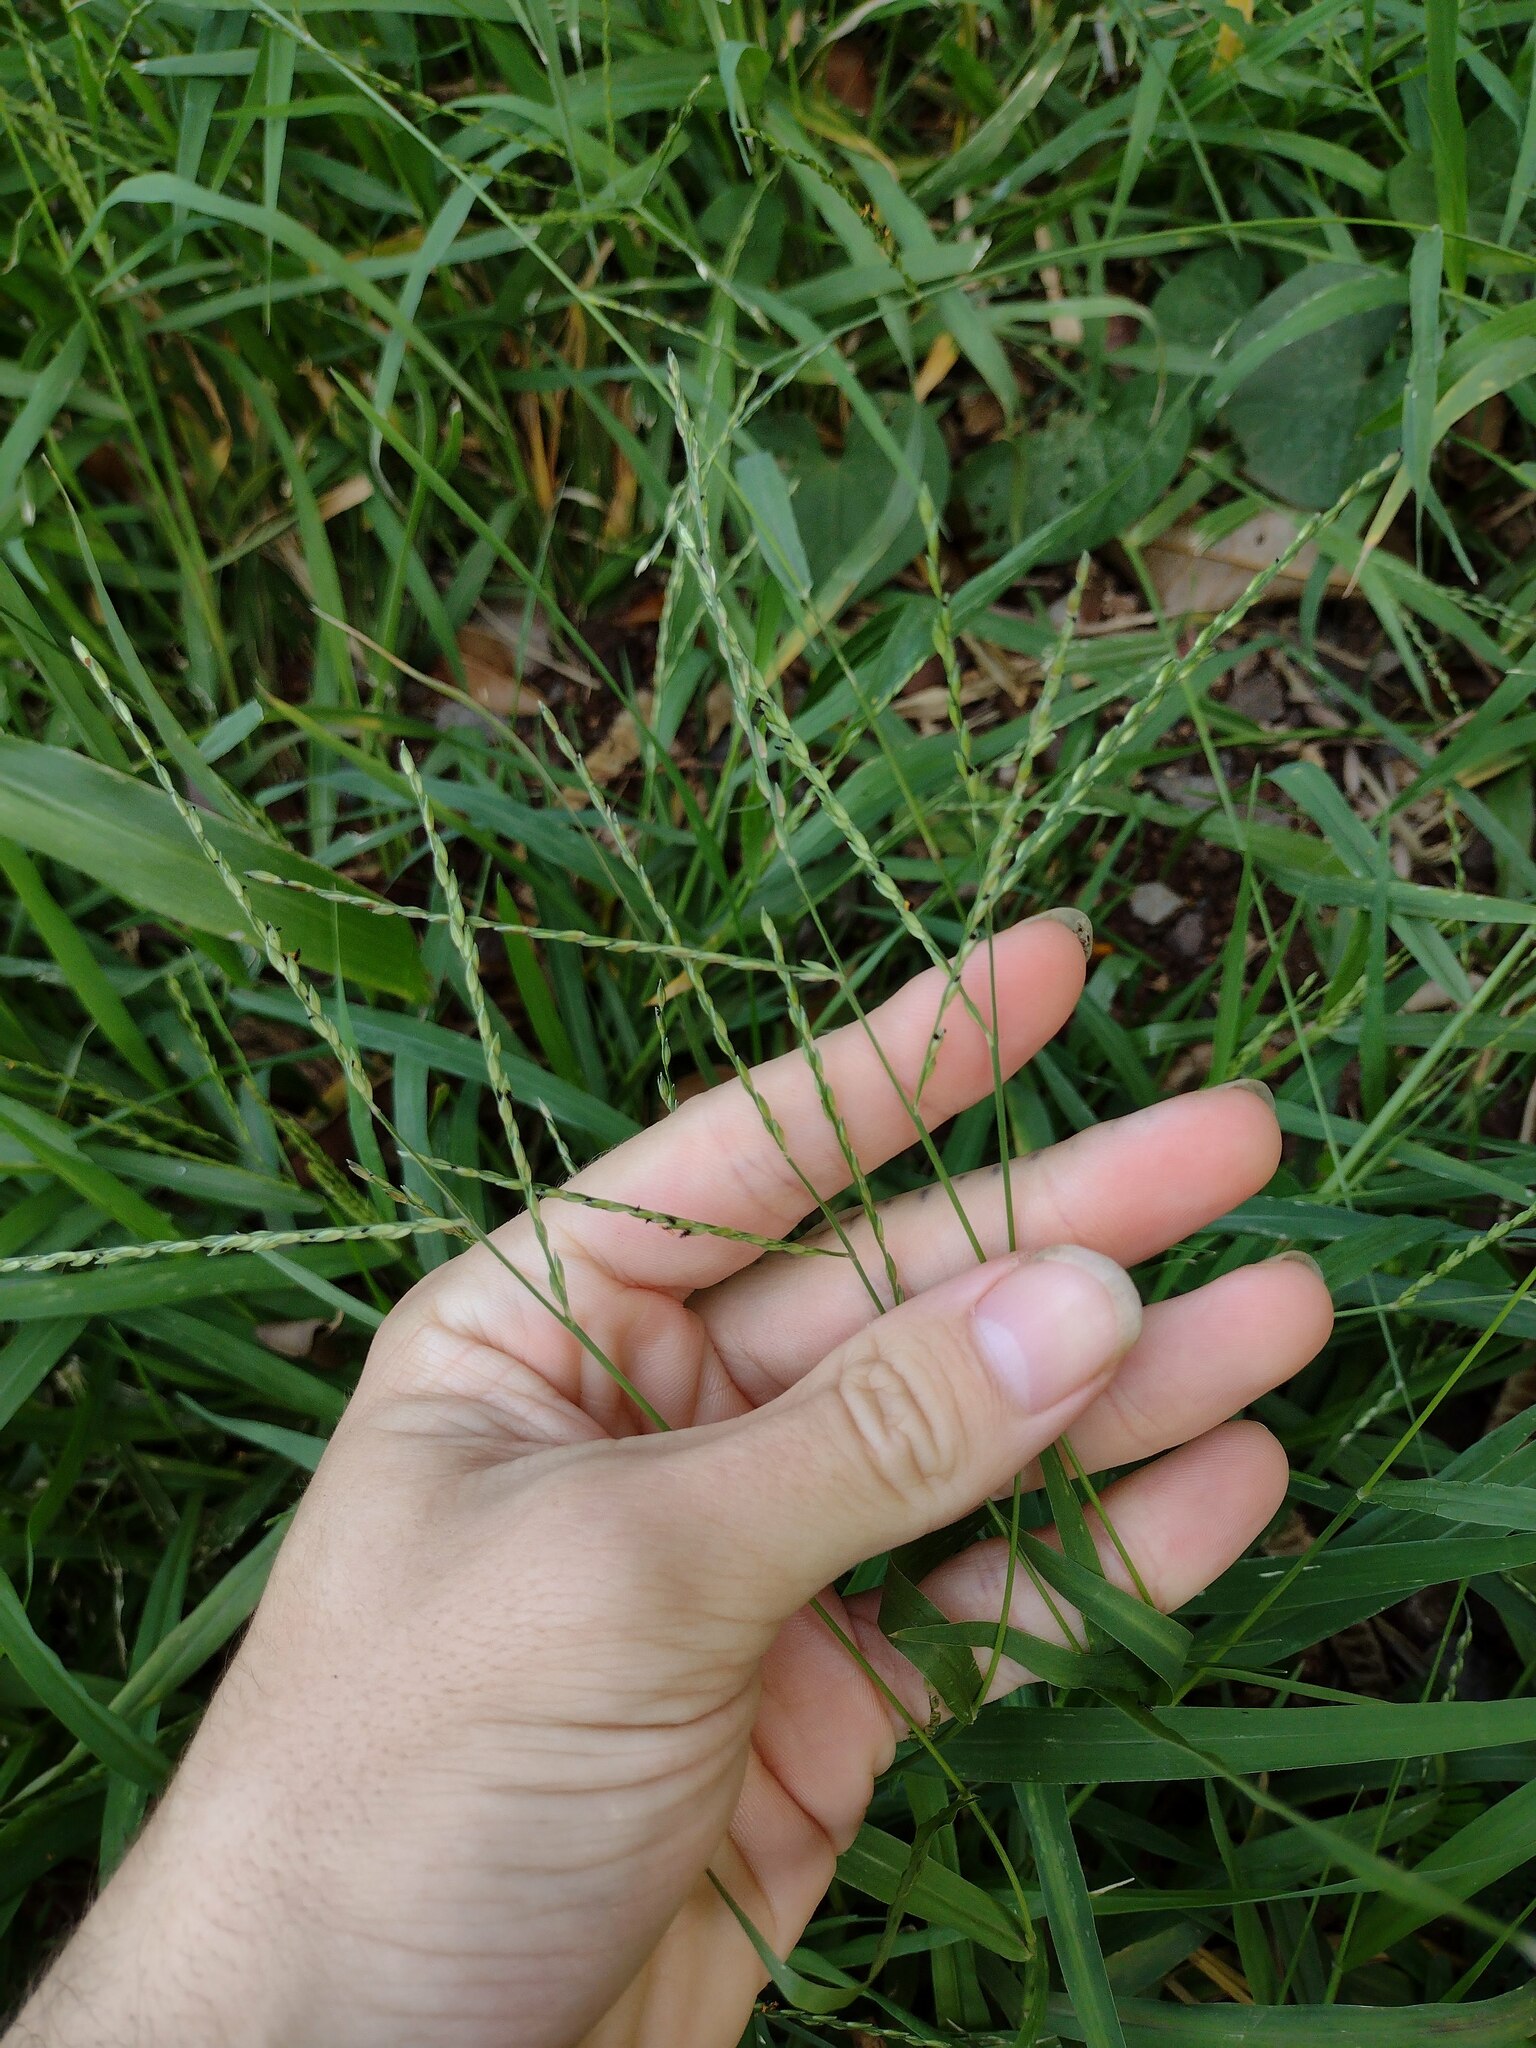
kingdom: Plantae
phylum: Tracheophyta
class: Liliopsida
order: Poales
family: Poaceae
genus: Urochloa
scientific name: Urochloa glumaris
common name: Thurston grass
